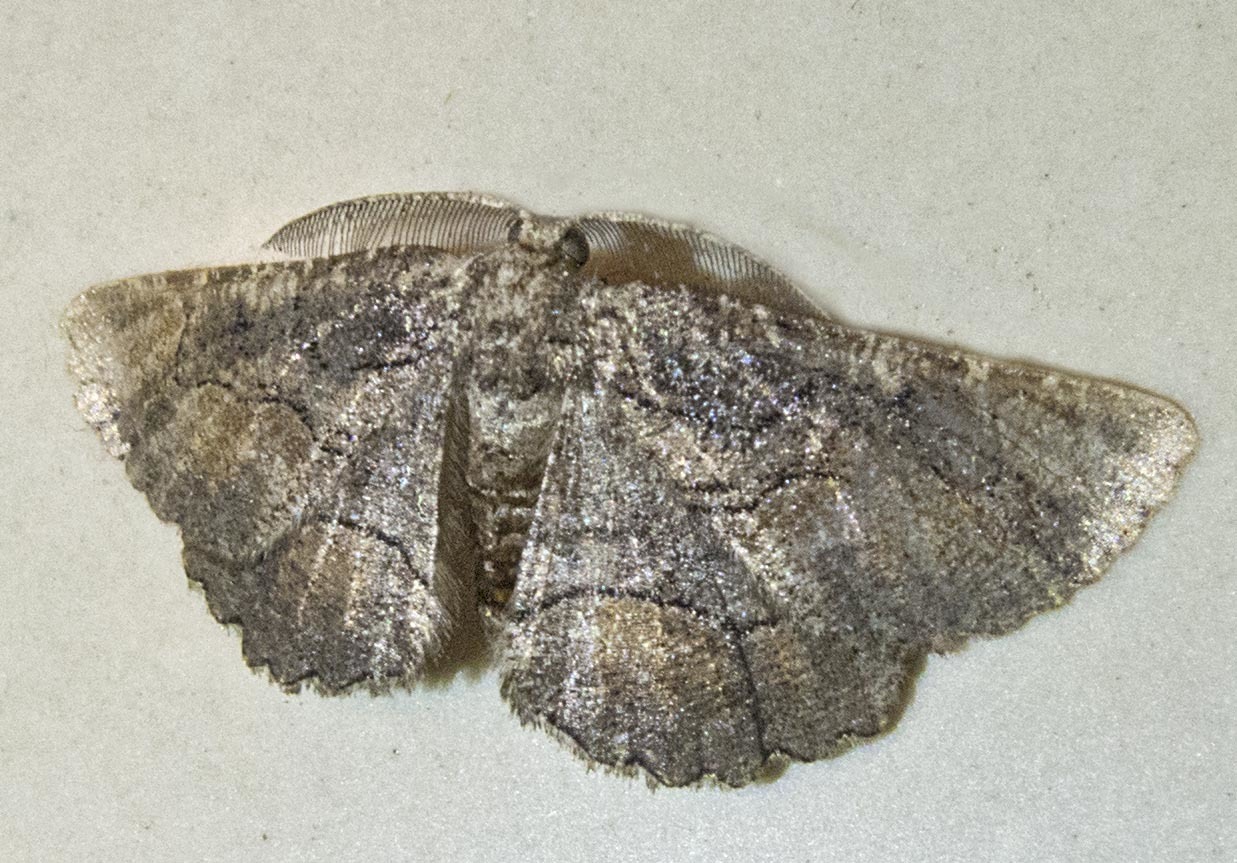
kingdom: Animalia
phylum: Arthropoda
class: Insecta
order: Lepidoptera
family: Geometridae
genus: Nychiodes
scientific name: Nychiodes waltheri
